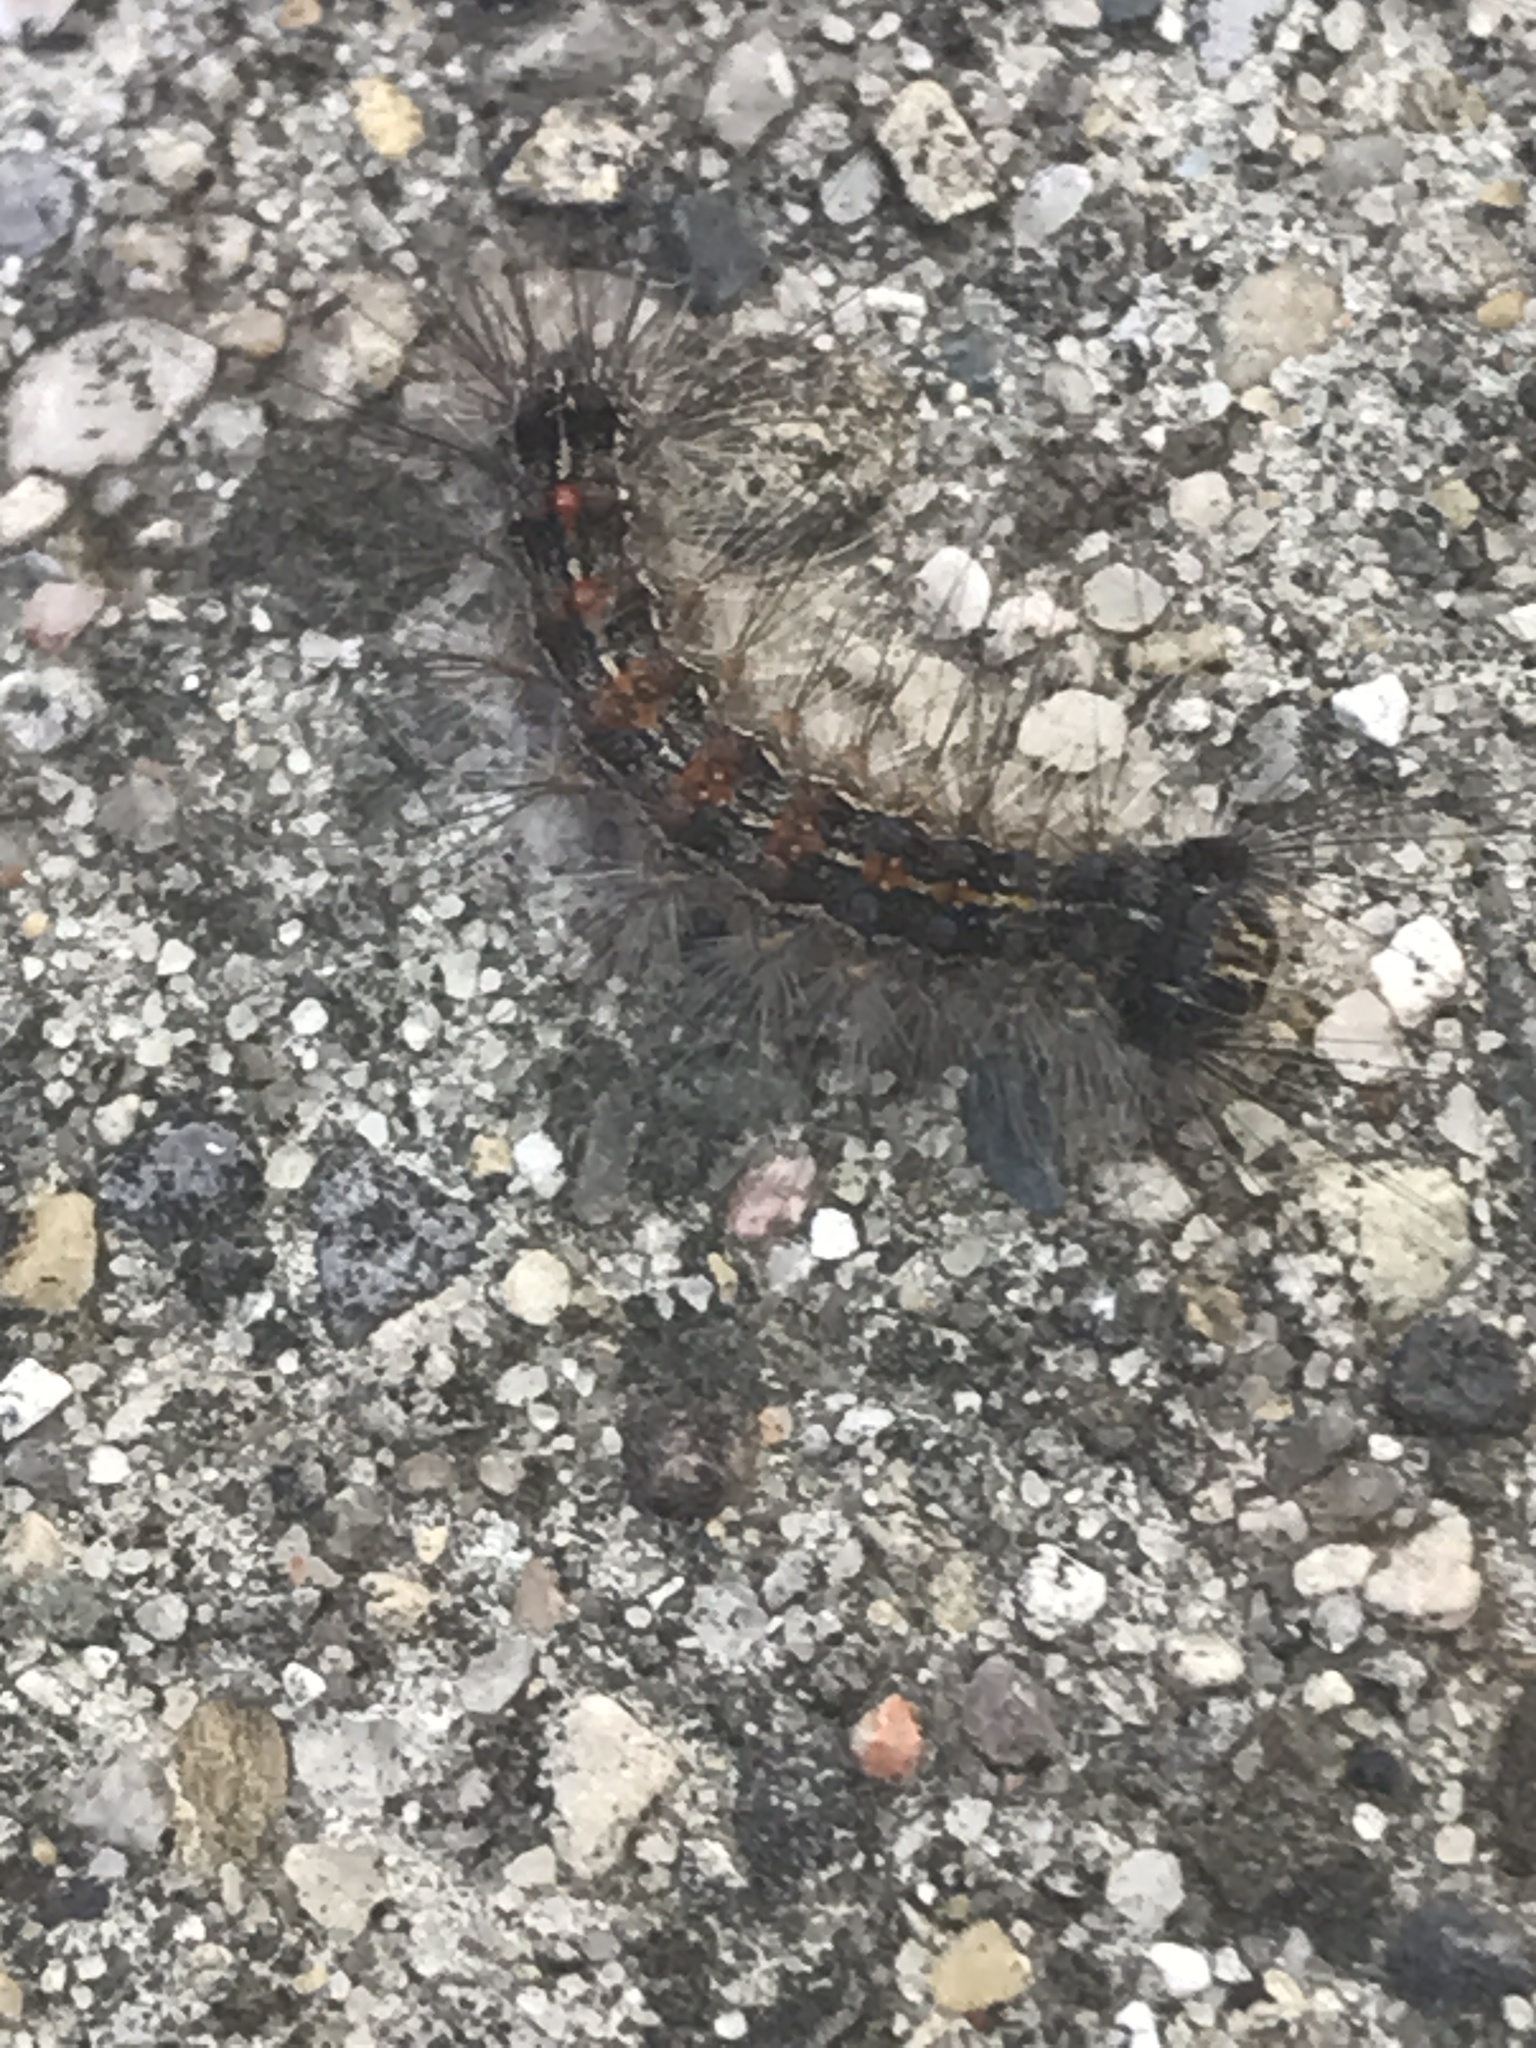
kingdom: Animalia
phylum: Arthropoda
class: Insecta
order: Lepidoptera
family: Erebidae
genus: Lymantria
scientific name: Lymantria dispar
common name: Gypsy moth
